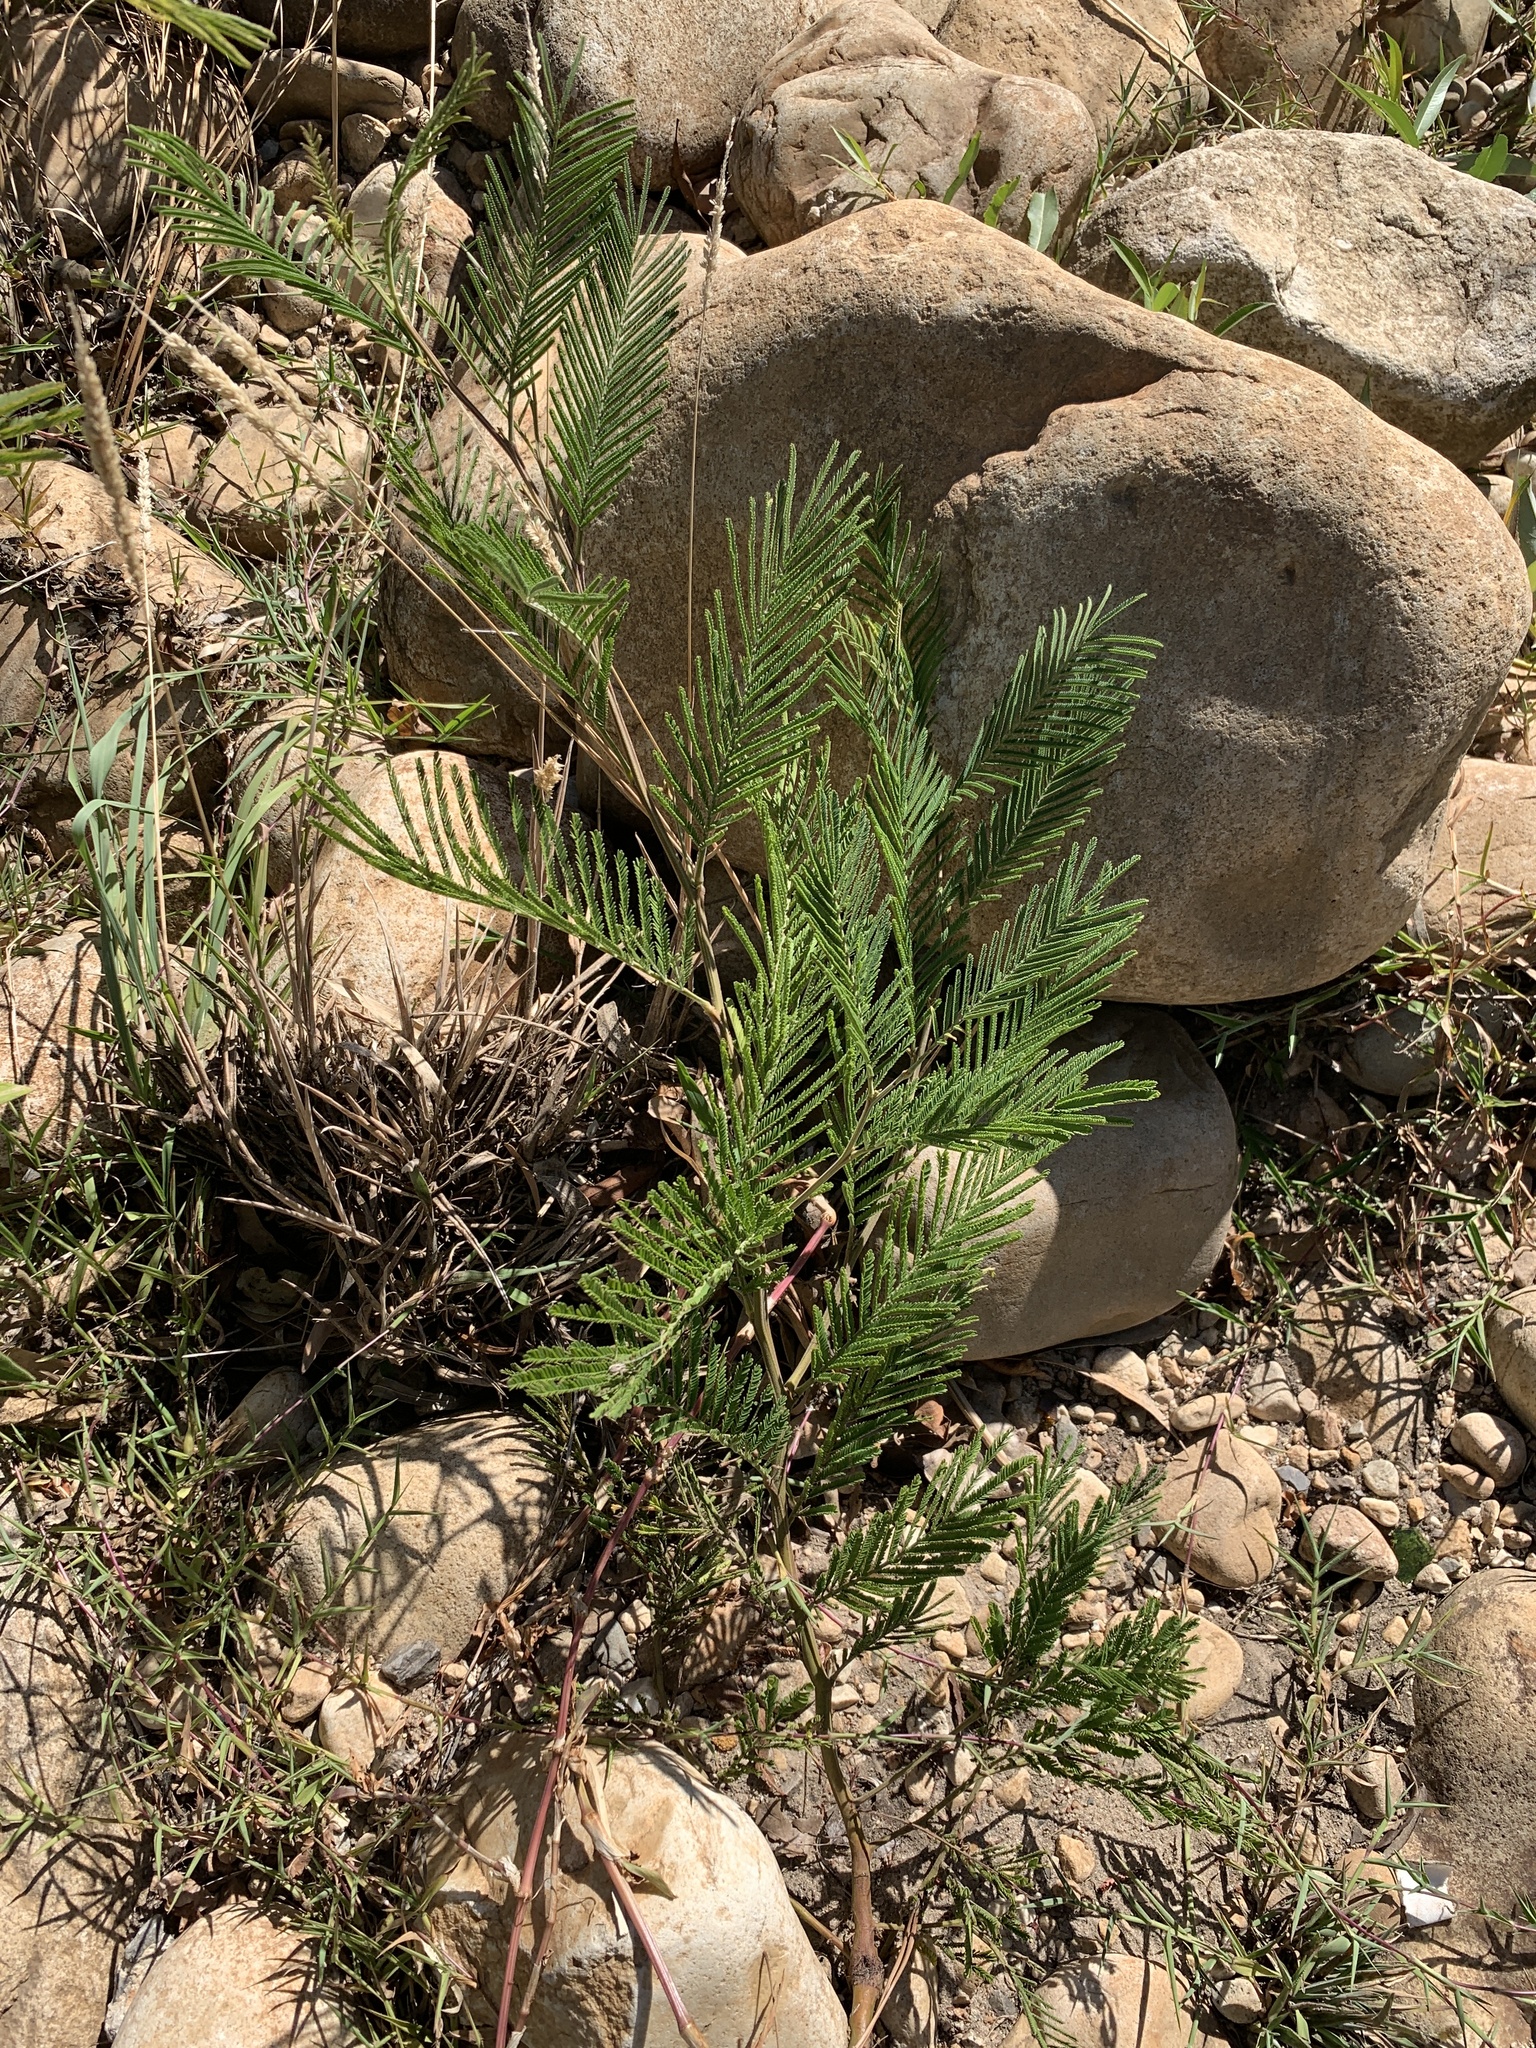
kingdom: Plantae
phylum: Tracheophyta
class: Magnoliopsida
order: Fabales
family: Fabaceae
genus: Acacia
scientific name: Acacia mearnsii
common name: Black wattle
